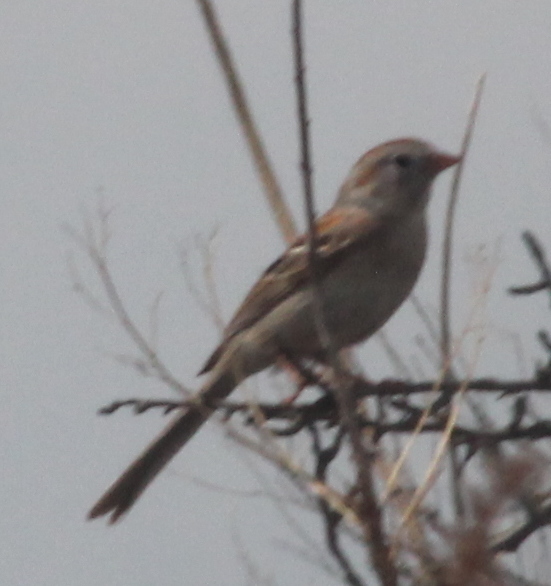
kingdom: Animalia
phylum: Chordata
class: Aves
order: Passeriformes
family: Passerellidae
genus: Spizella
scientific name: Spizella pusilla
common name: Field sparrow
